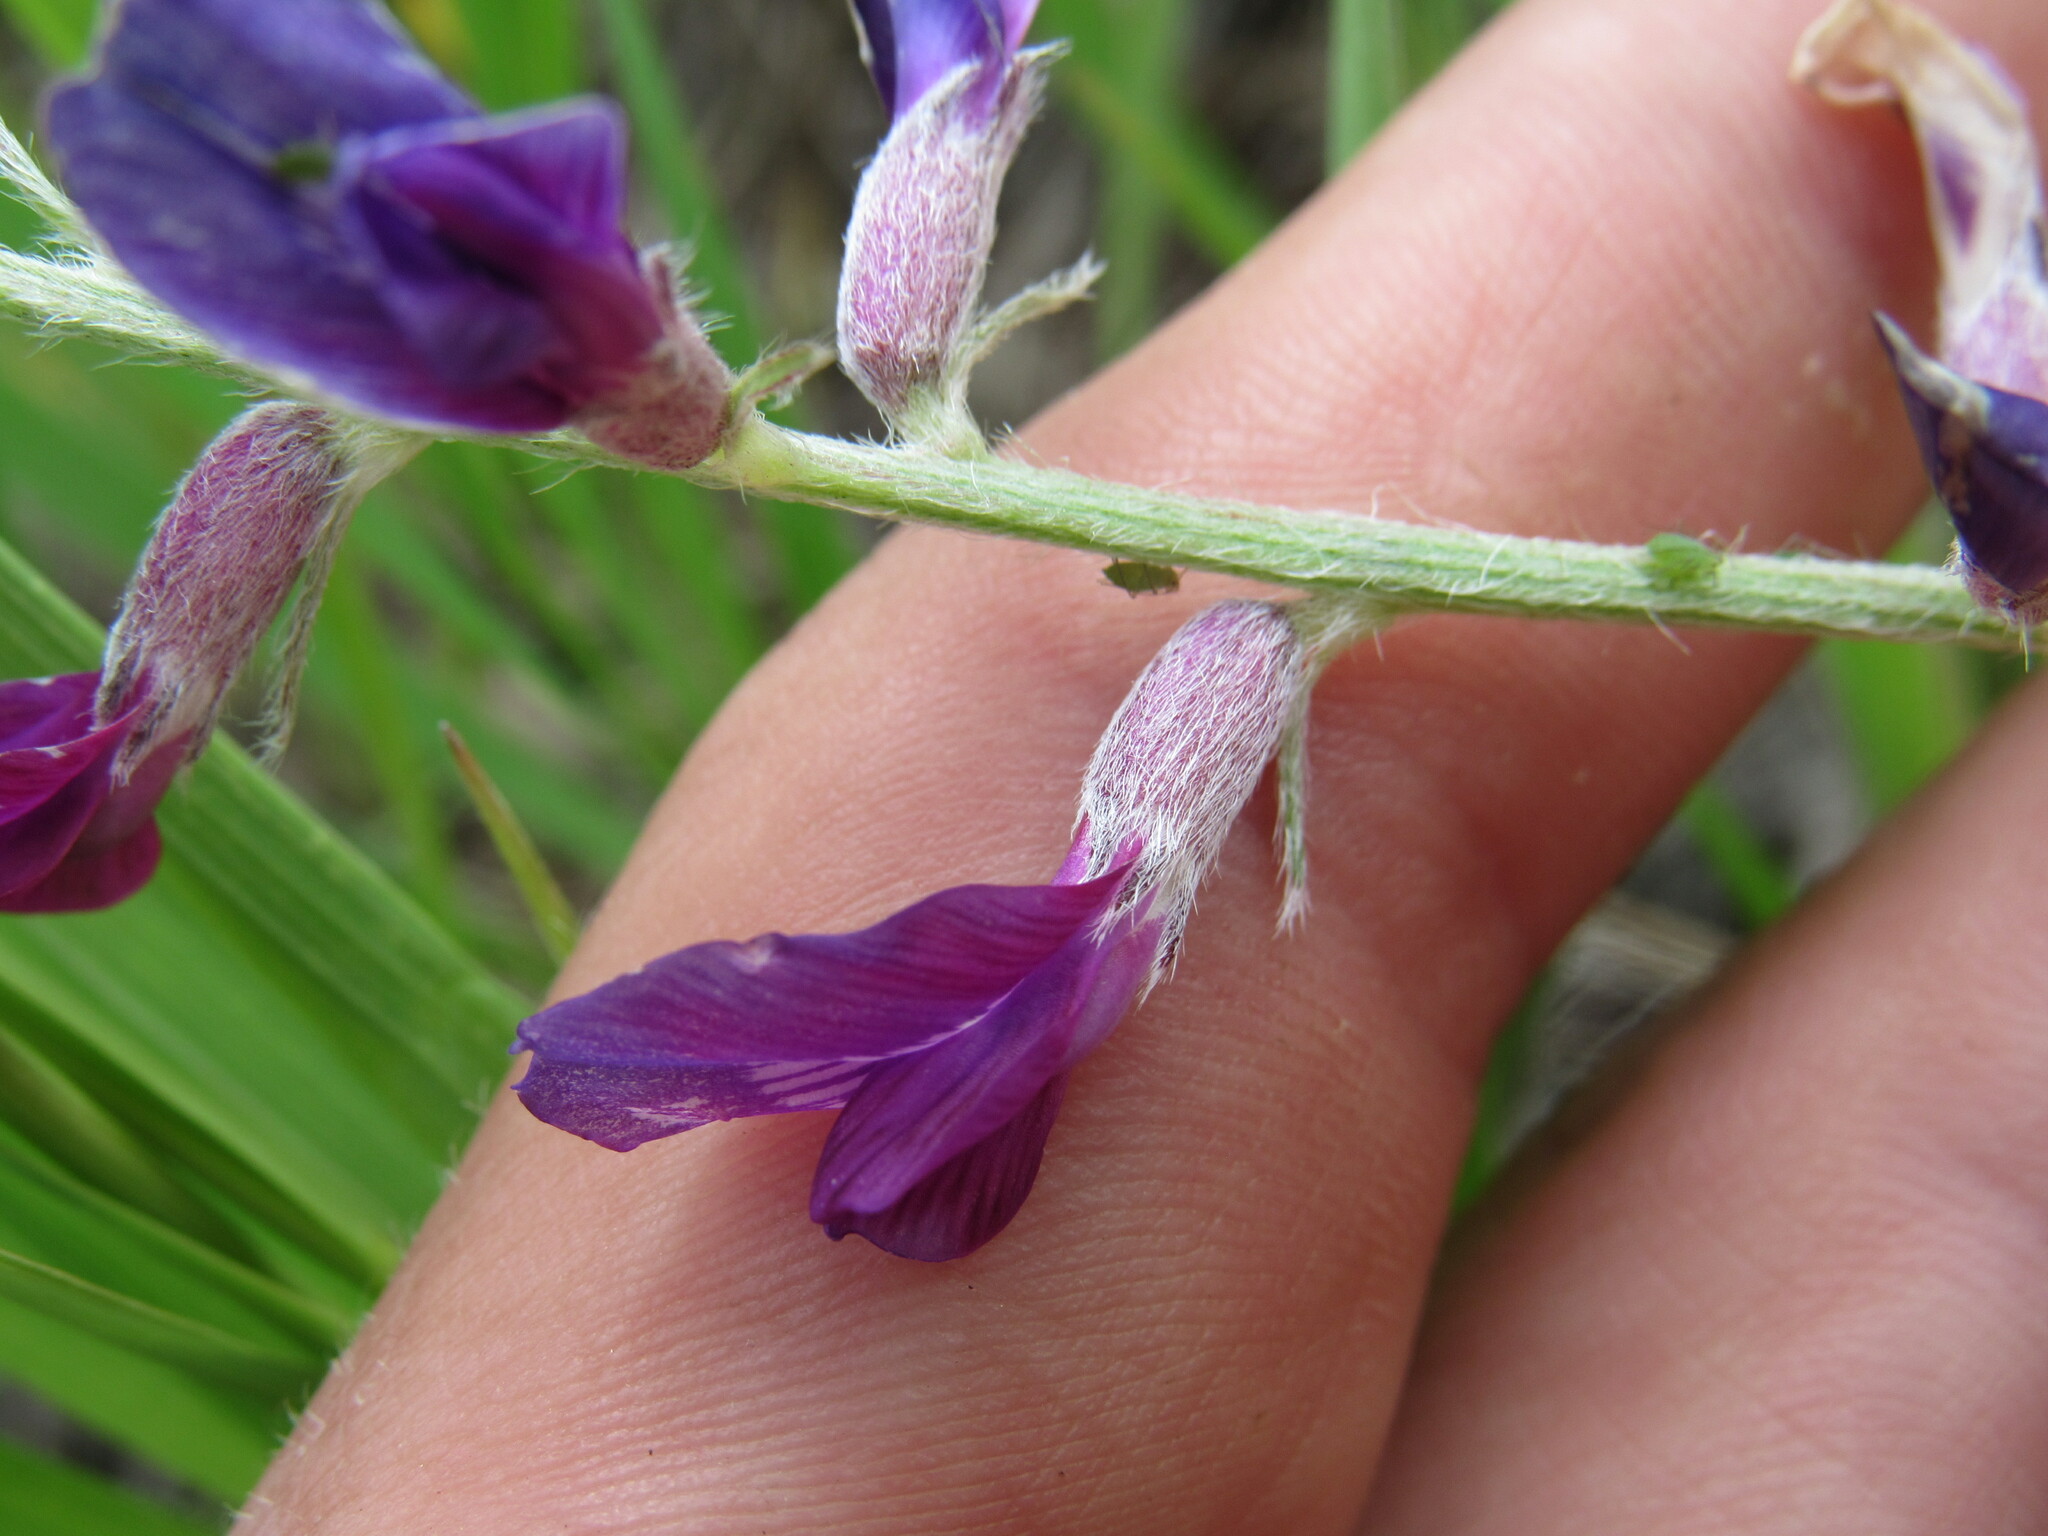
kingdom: Plantae
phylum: Tracheophyta
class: Magnoliopsida
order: Fabales
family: Fabaceae
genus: Oxytropis
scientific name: Oxytropis lambertii
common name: Purple locoweed
